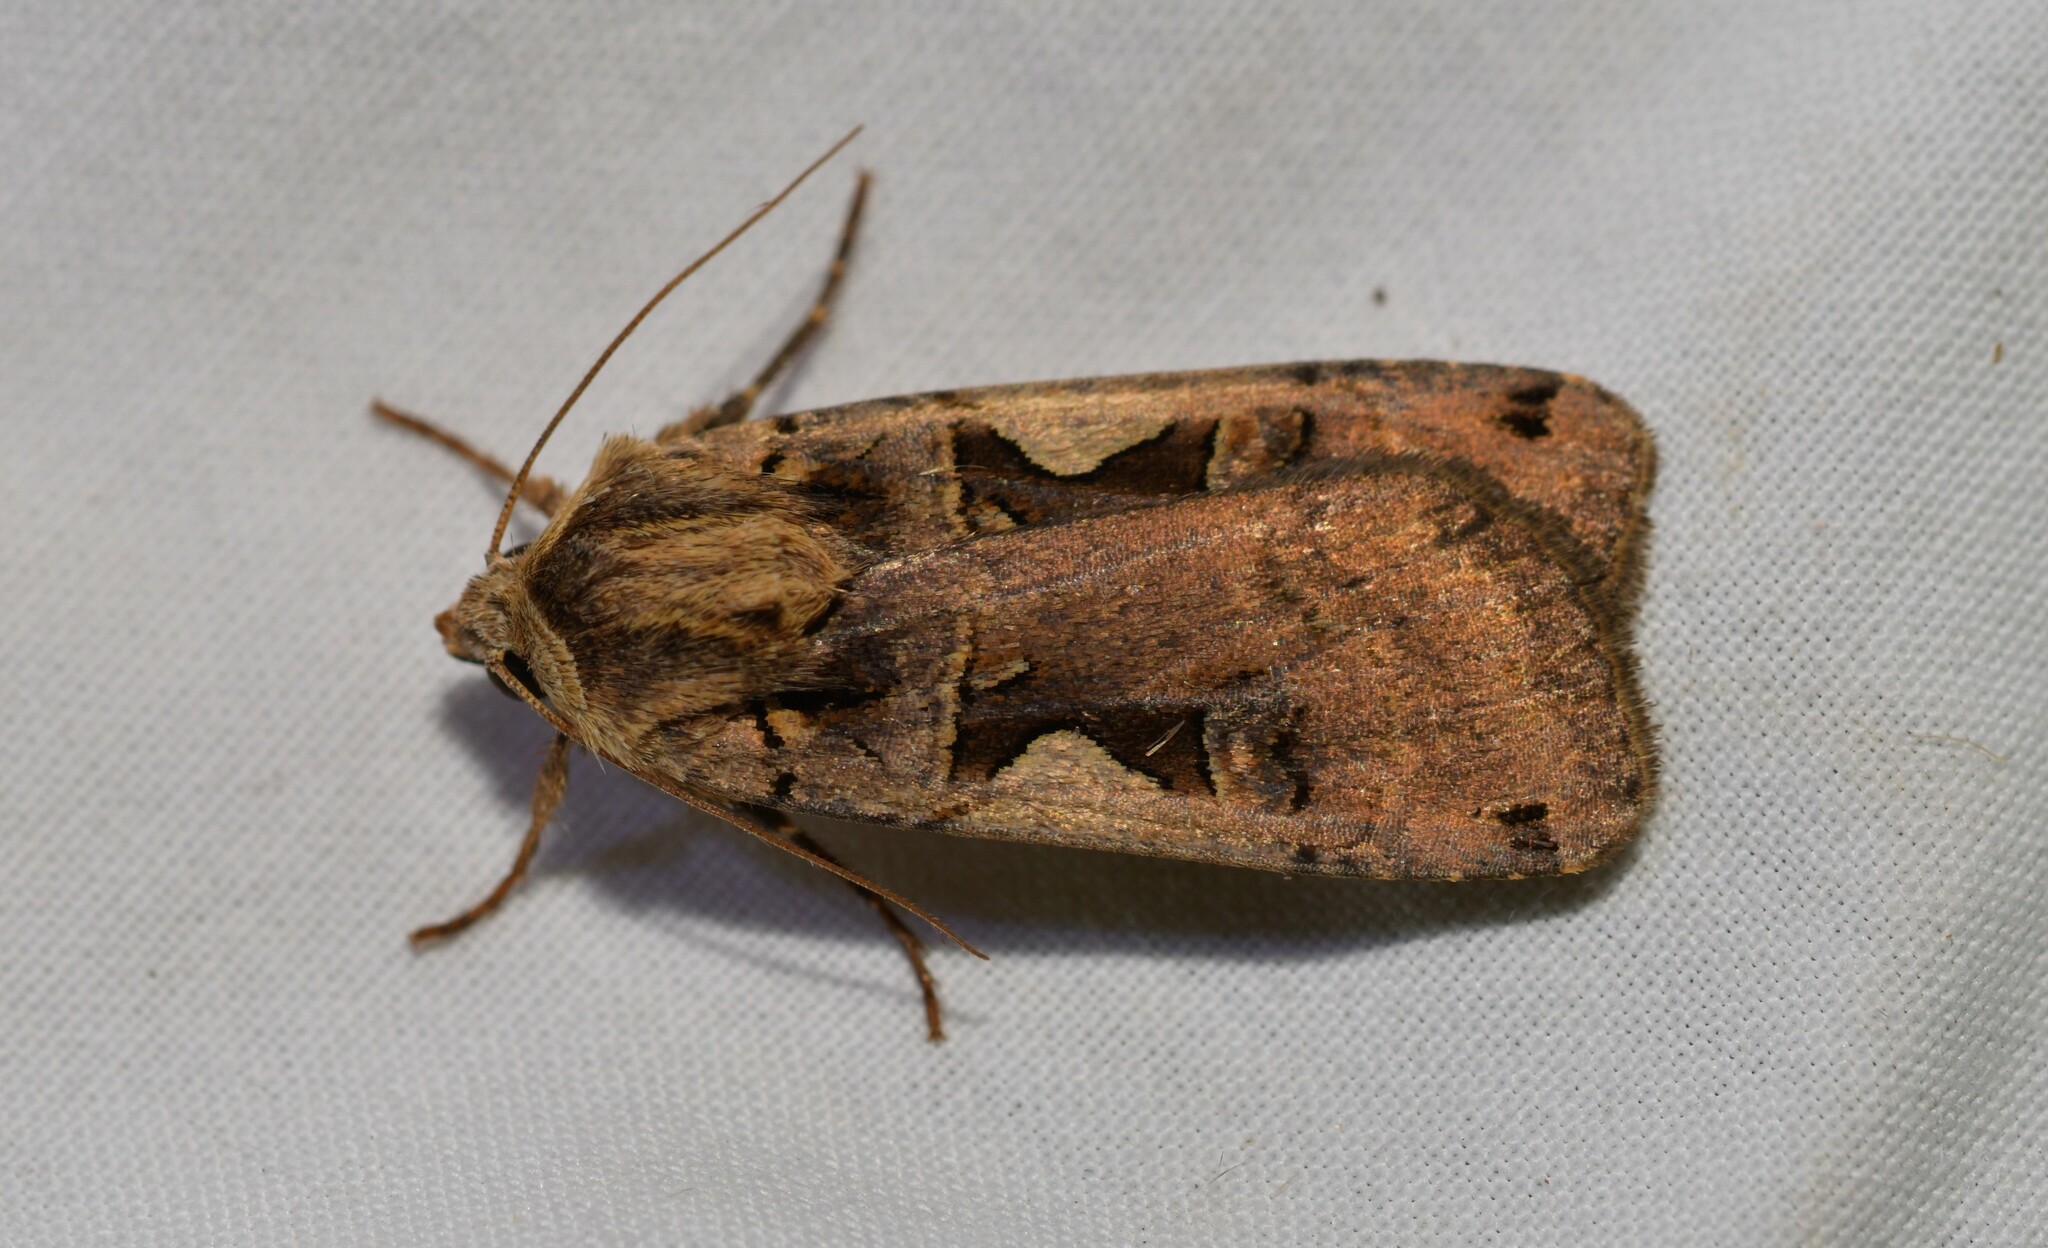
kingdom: Animalia
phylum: Arthropoda
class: Insecta
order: Lepidoptera
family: Noctuidae
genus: Xestia
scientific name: Xestia c-nigrum
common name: Setaceous hebrew character
